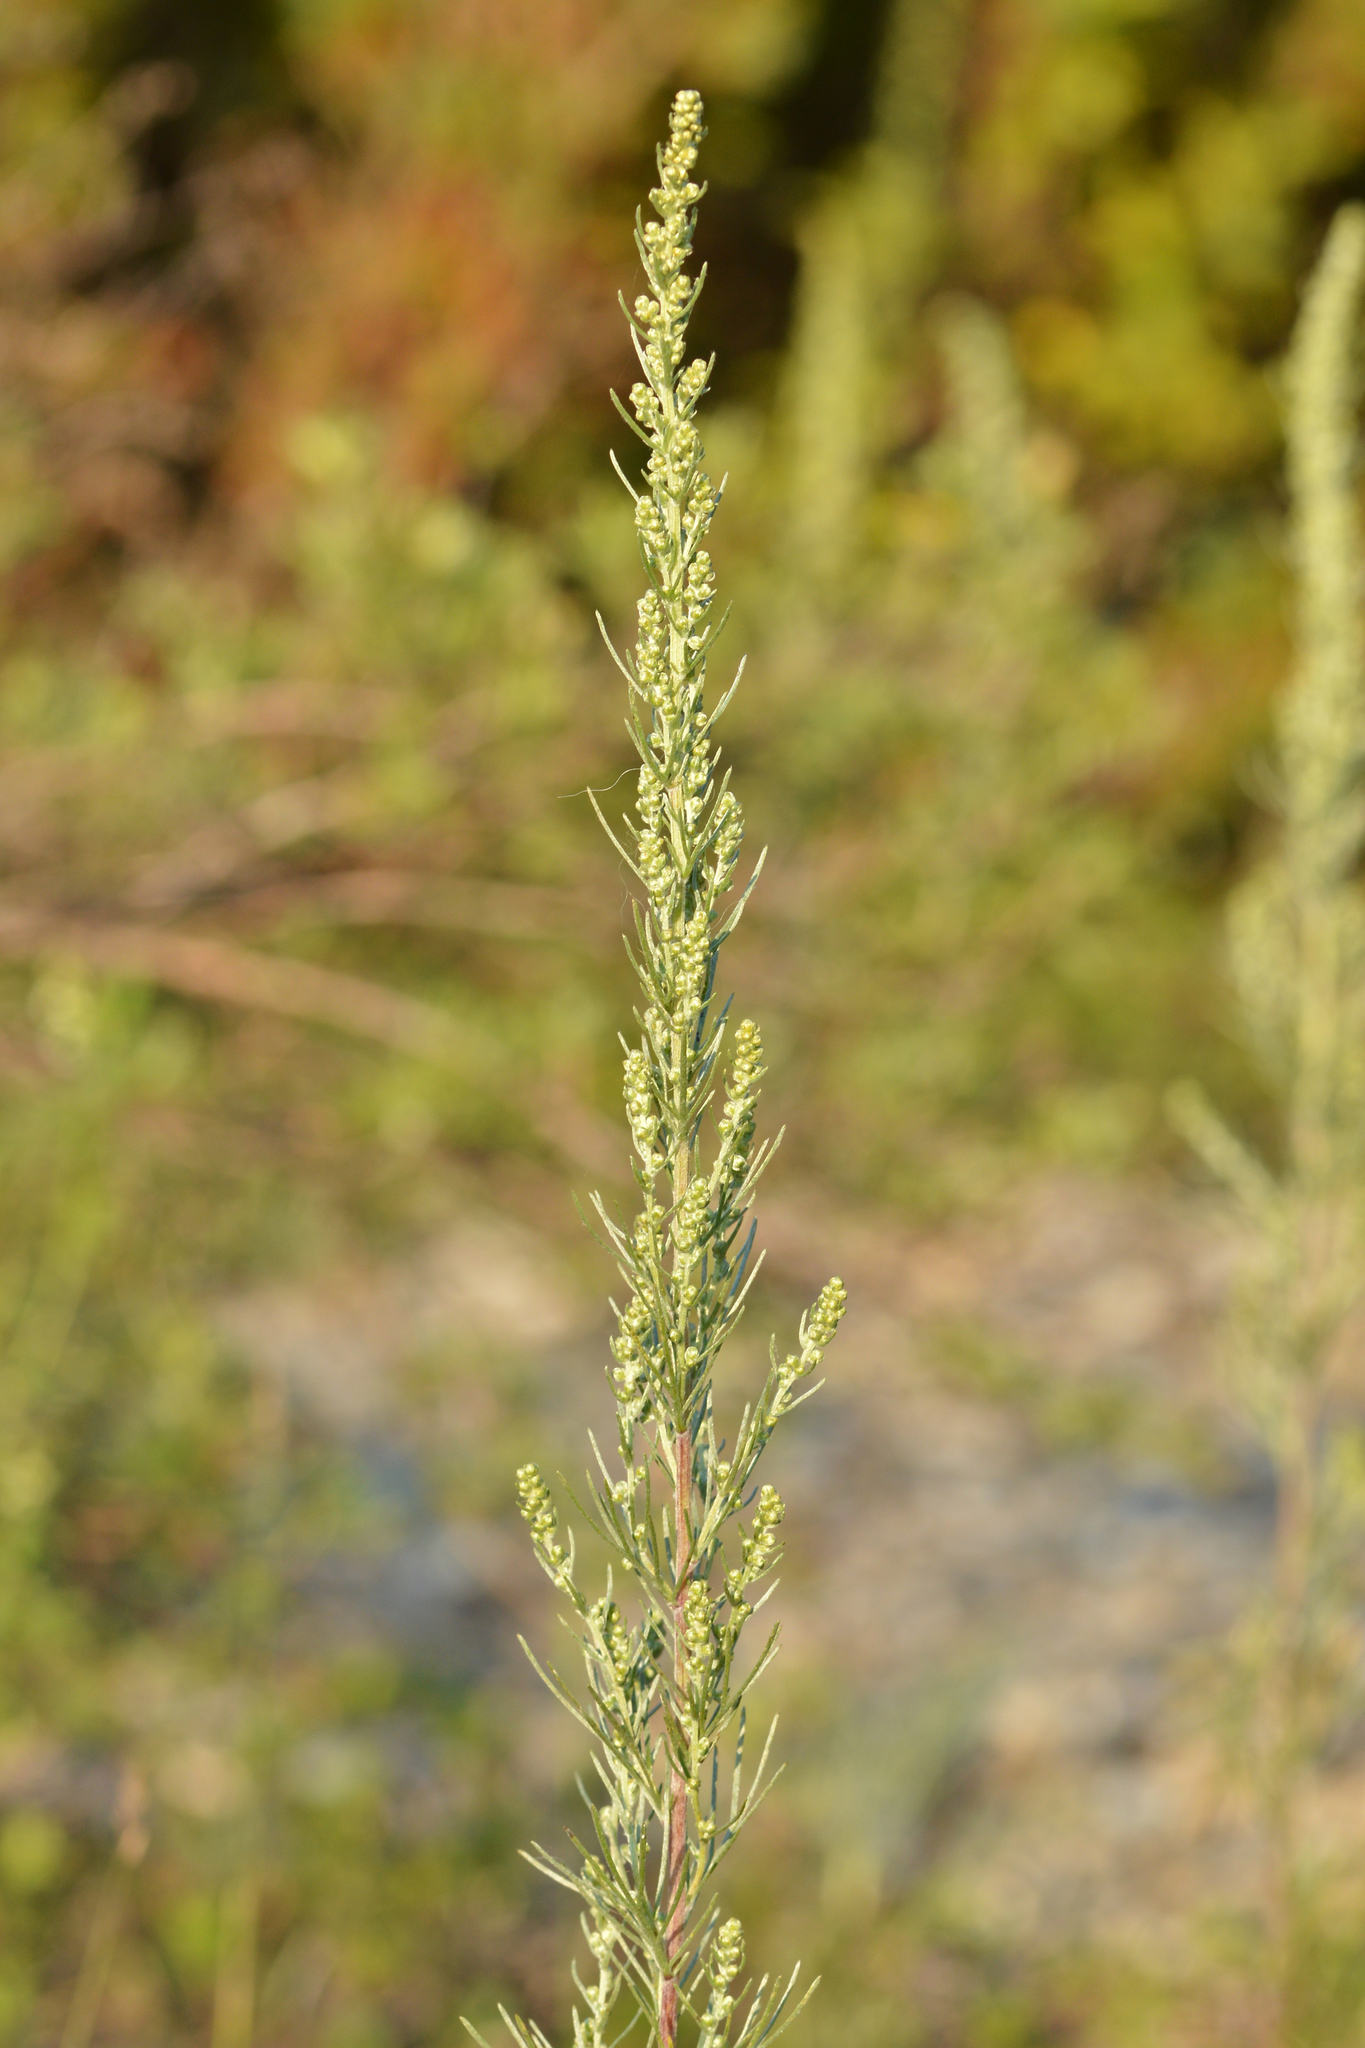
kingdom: Plantae
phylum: Tracheophyta
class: Magnoliopsida
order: Asterales
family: Asteraceae
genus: Artemisia
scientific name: Artemisia campestris
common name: Field wormwood
